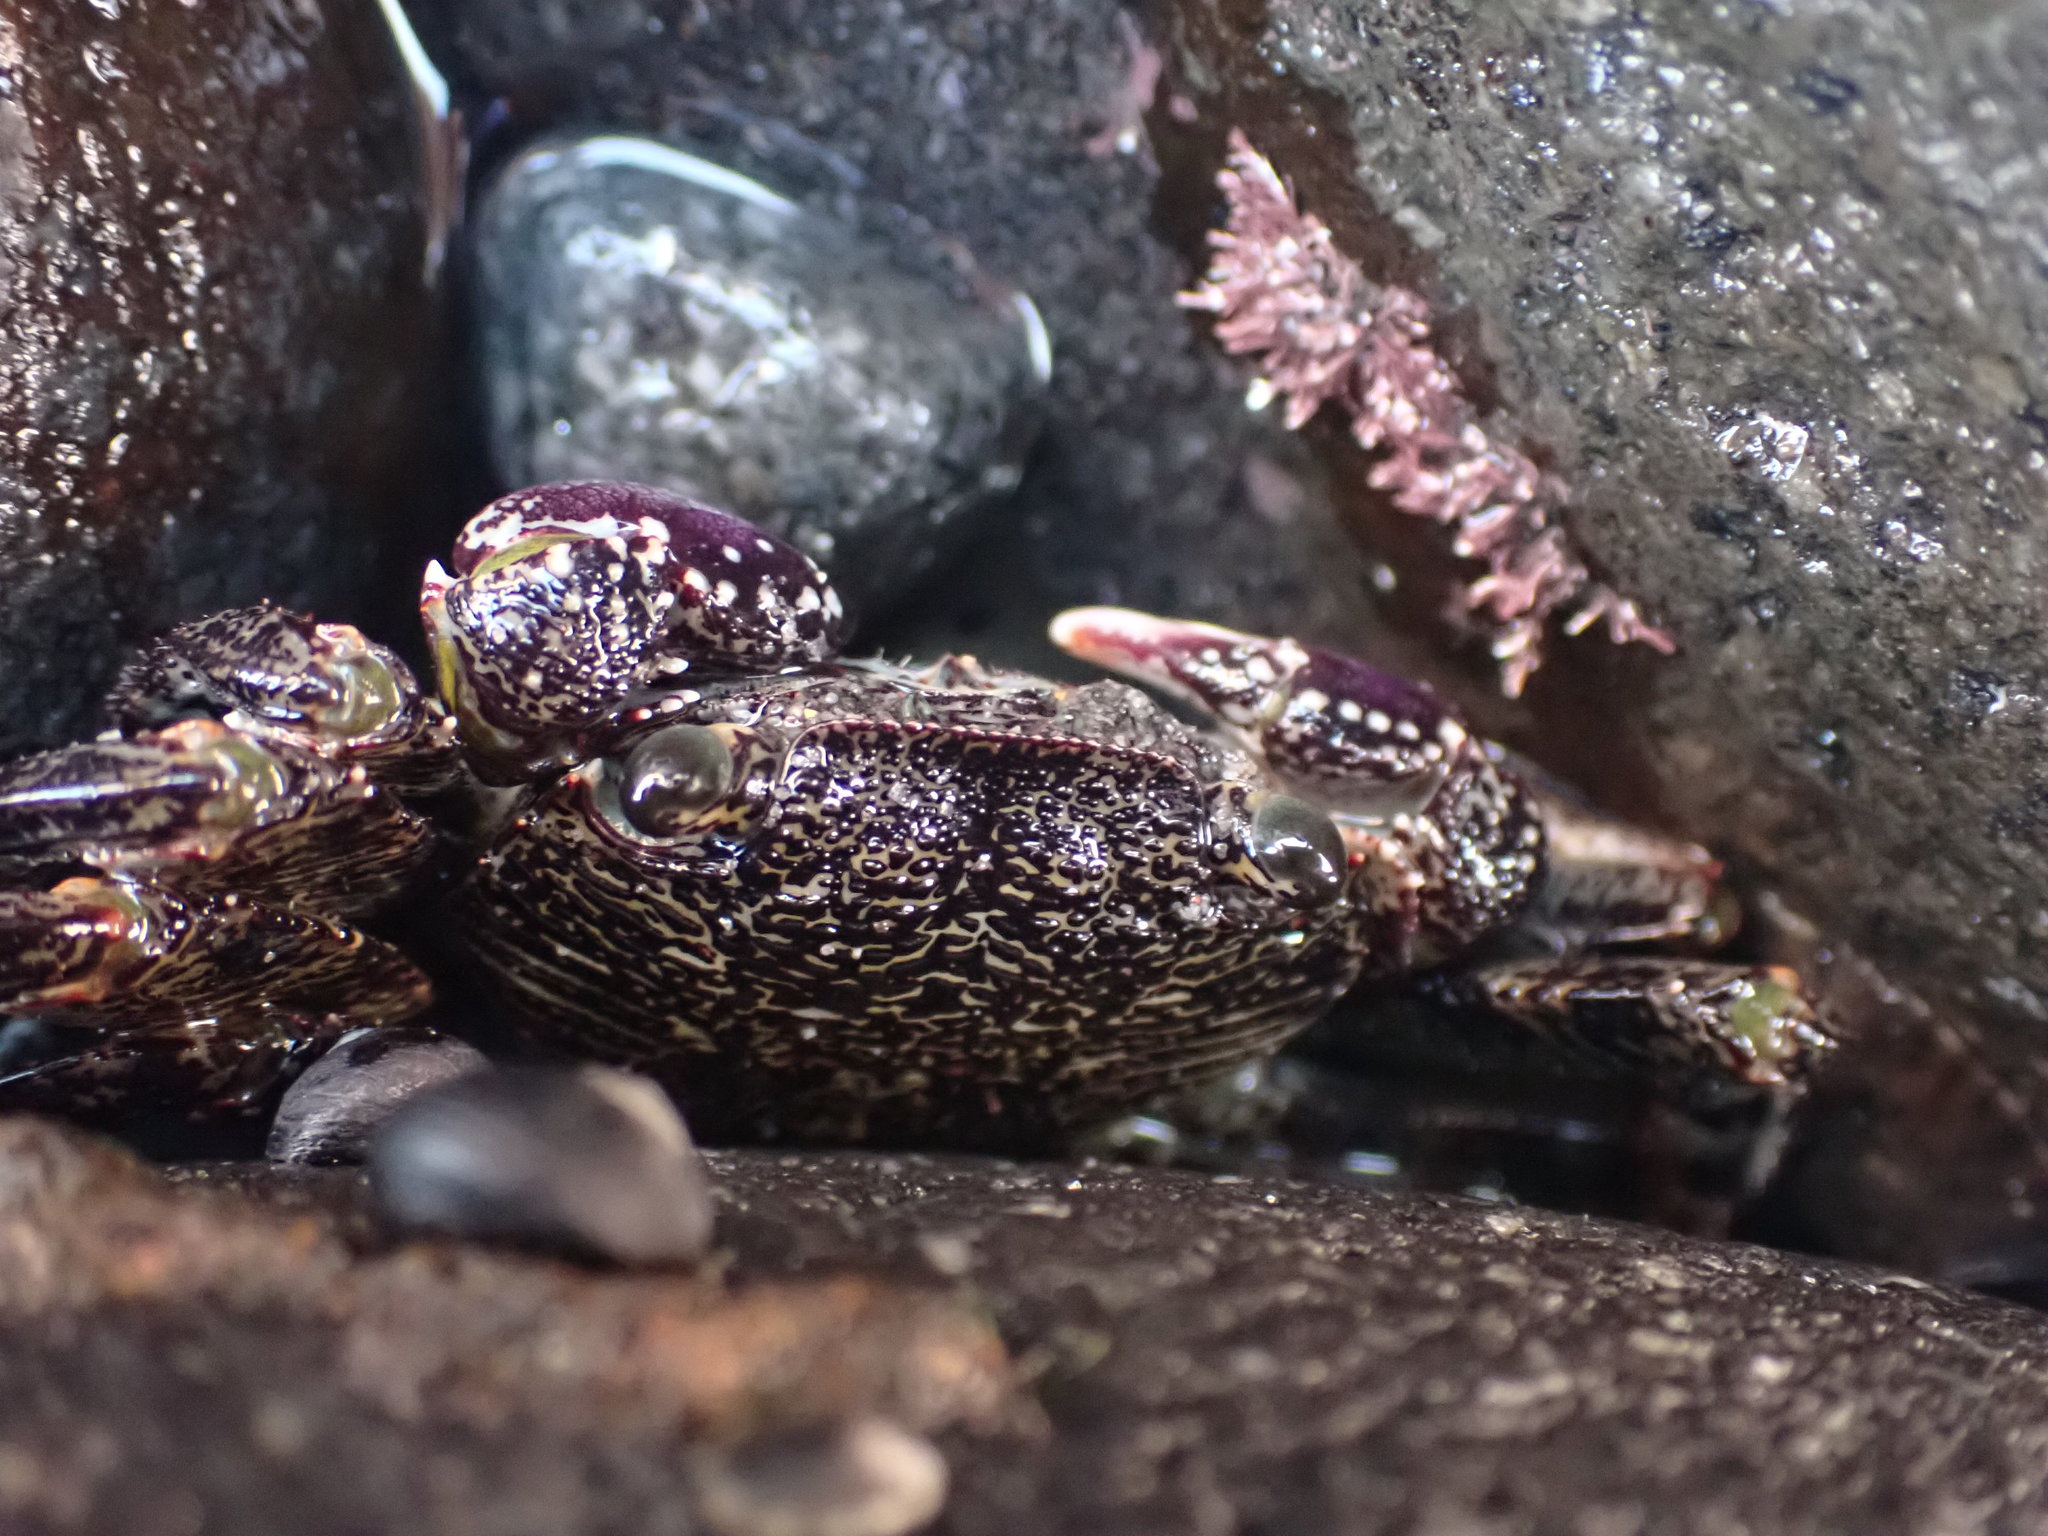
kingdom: Animalia
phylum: Arthropoda
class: Malacostraca
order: Decapoda
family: Grapsidae
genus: Leptograpsus
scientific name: Leptograpsus variegatus
